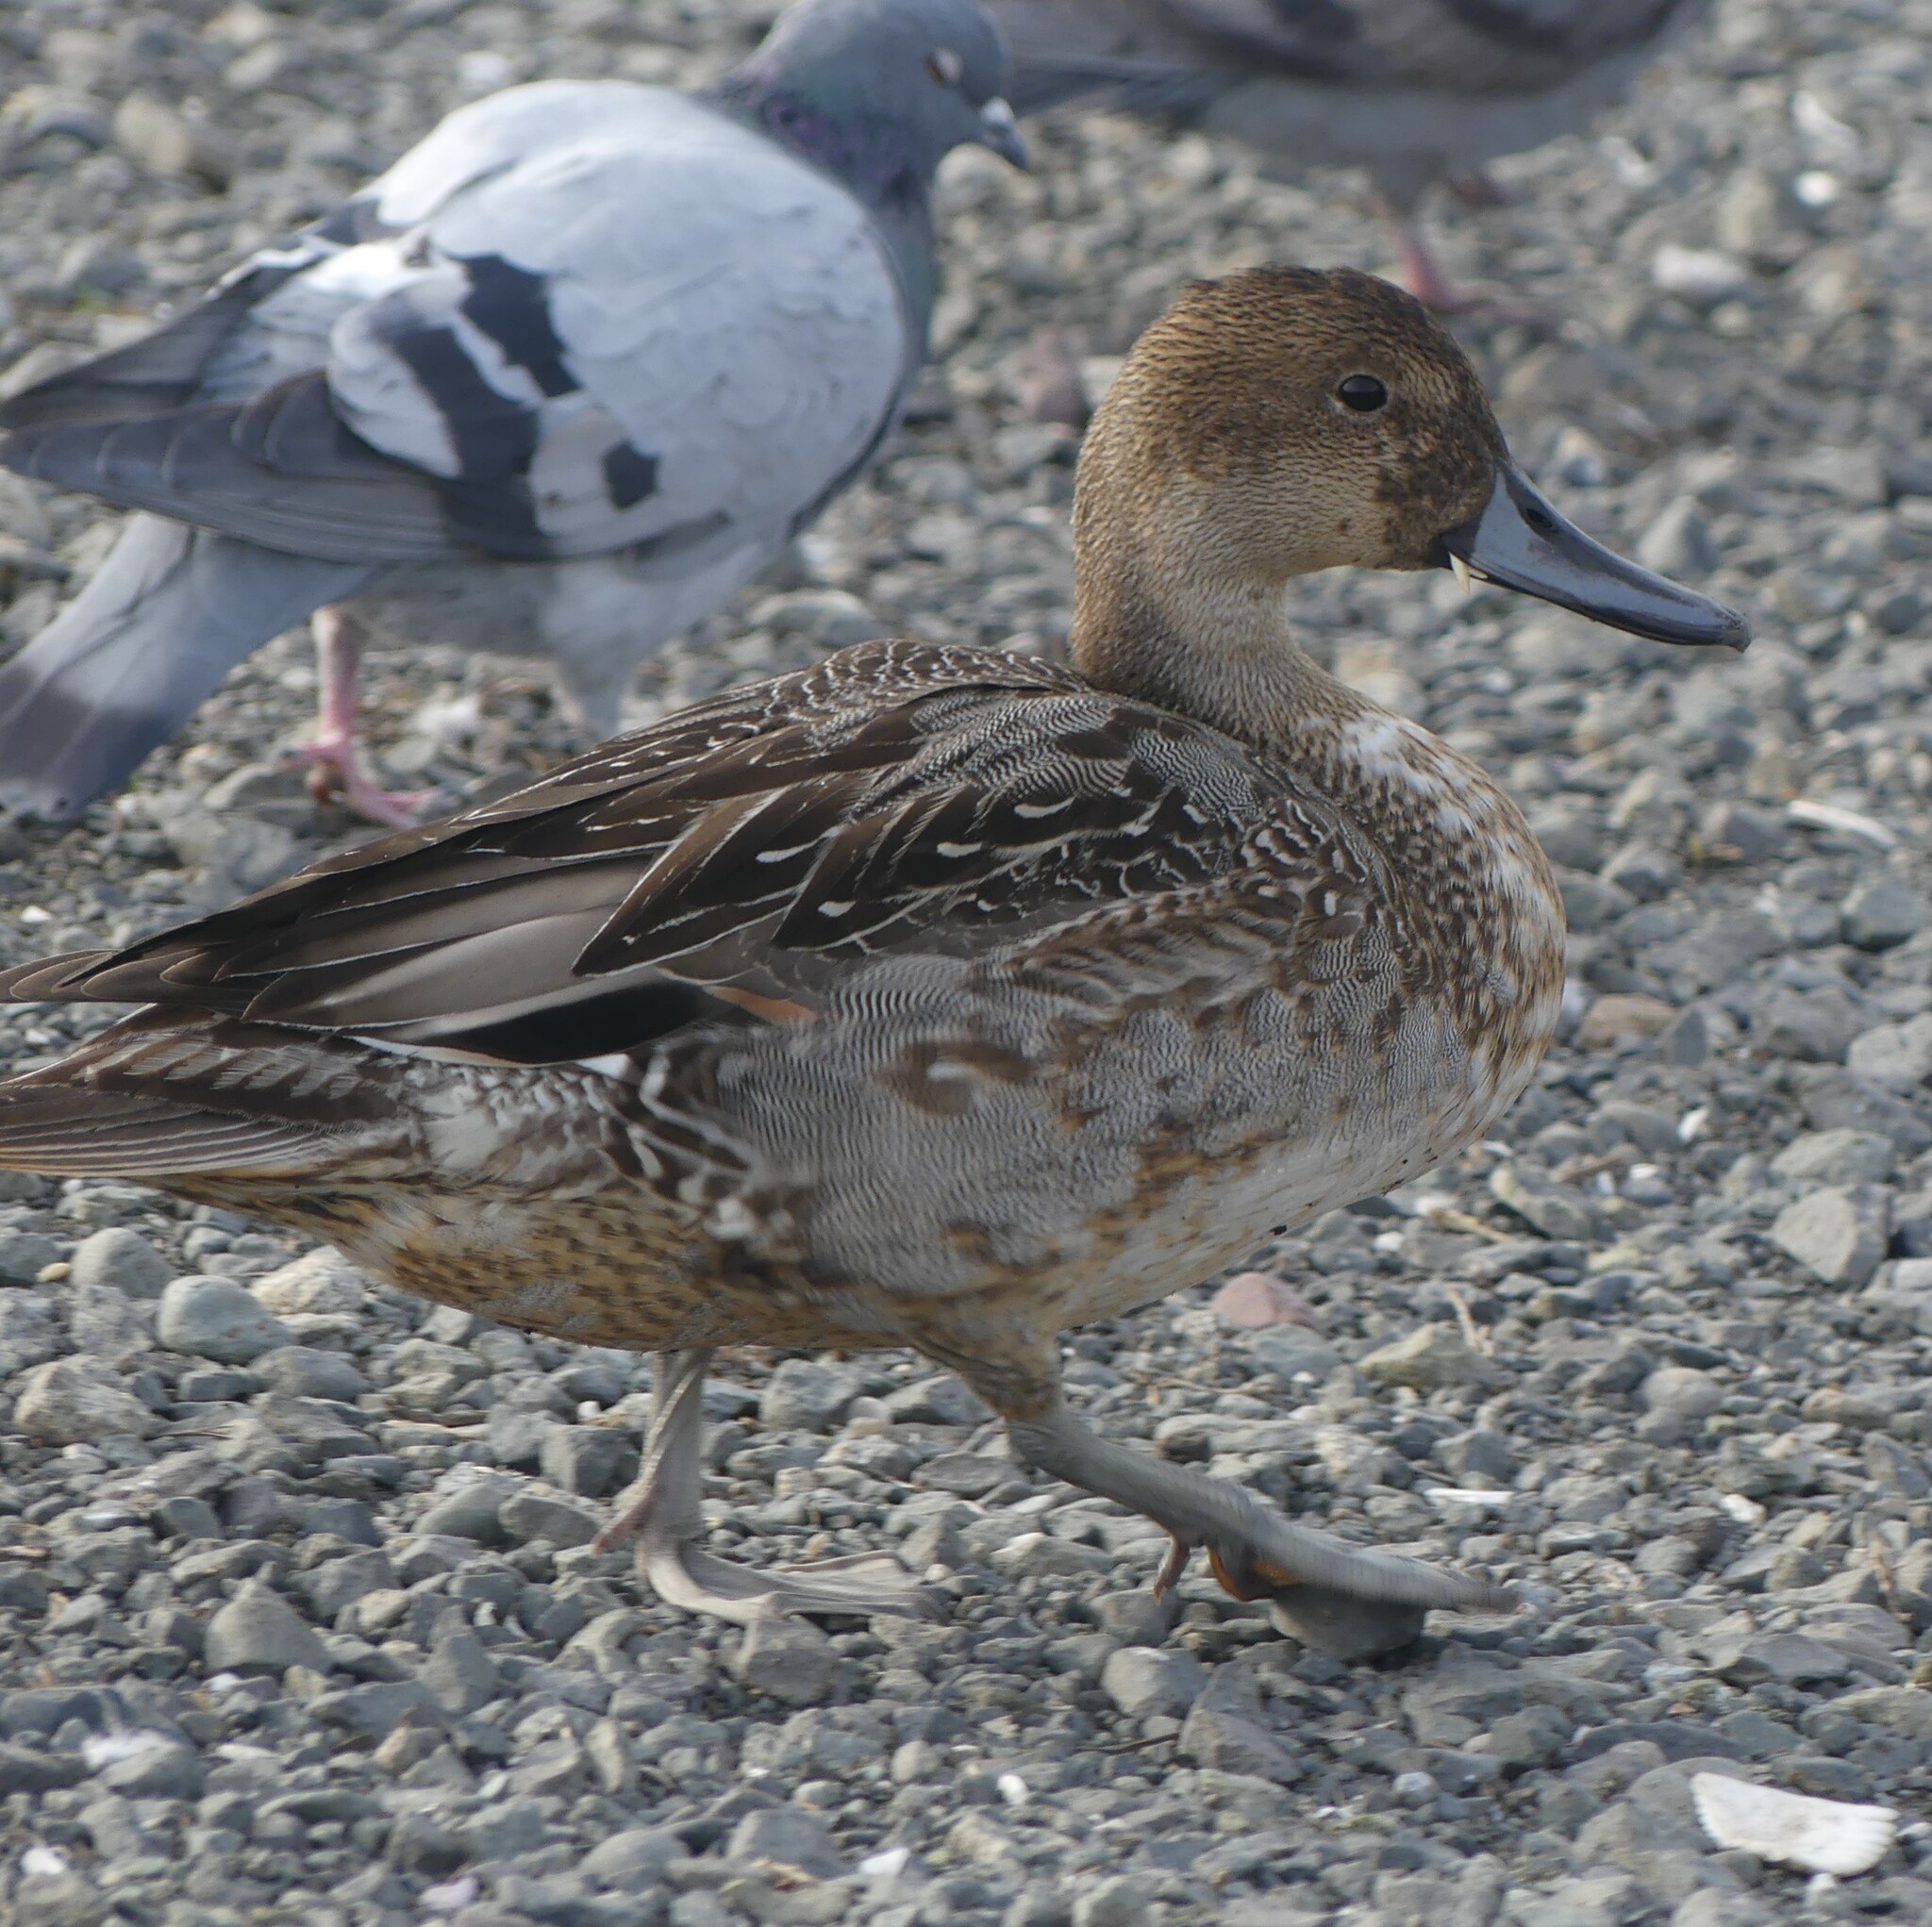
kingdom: Animalia
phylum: Chordata
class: Aves
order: Anseriformes
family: Anatidae
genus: Anas
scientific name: Anas acuta
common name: Northern pintail
